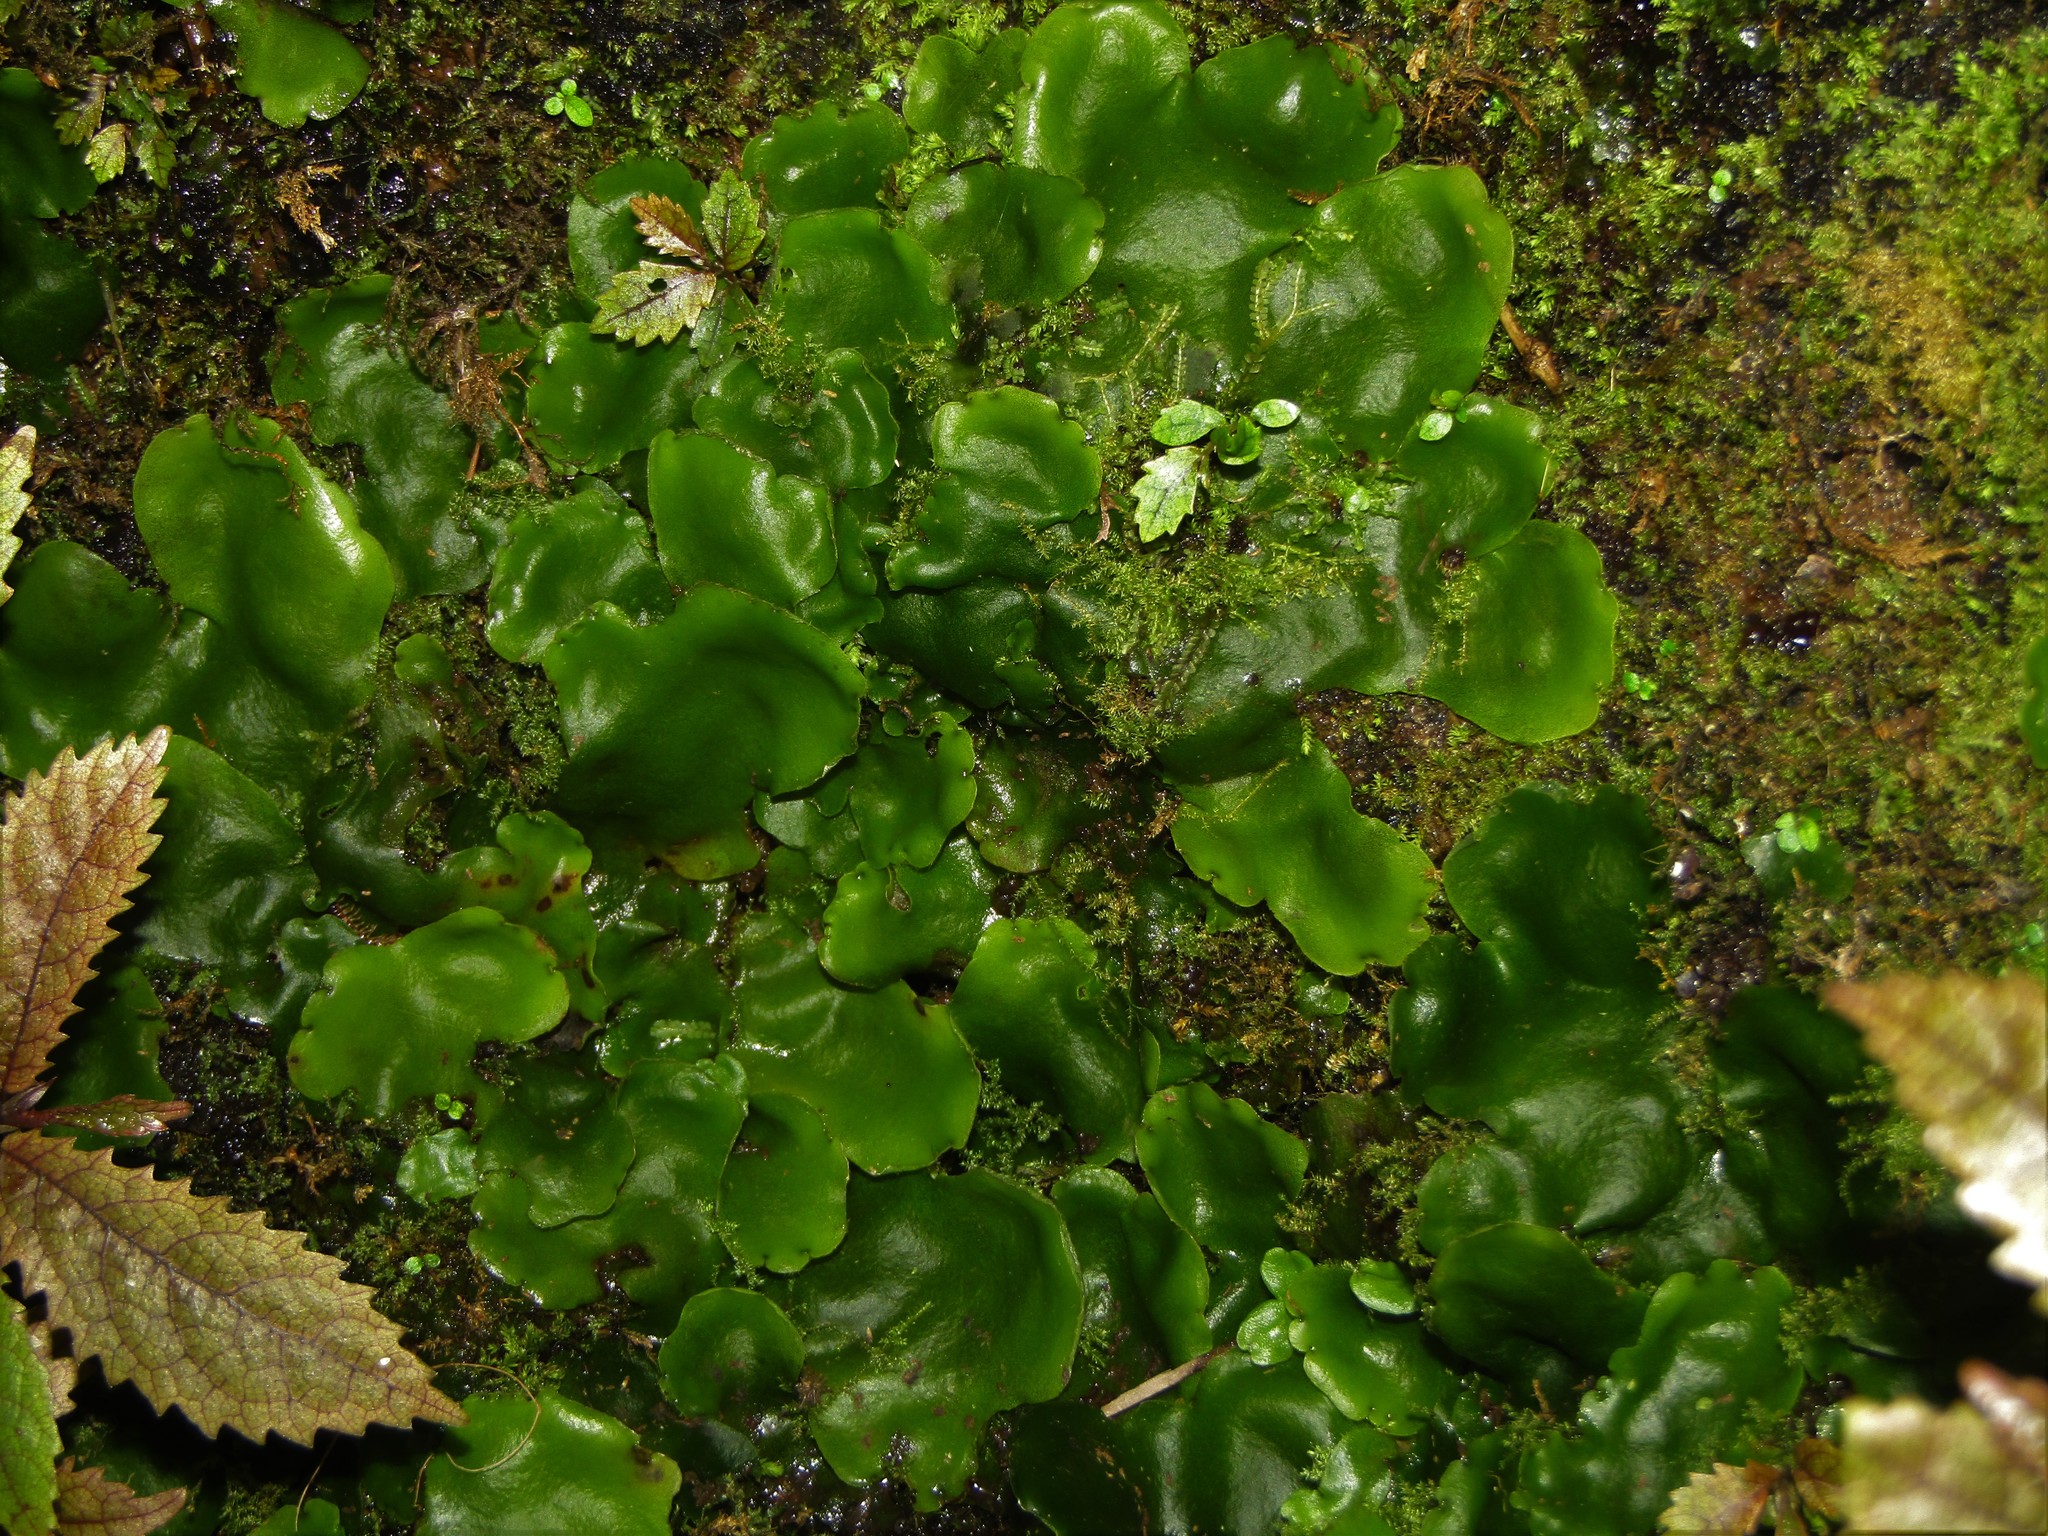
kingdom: Plantae
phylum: Marchantiophyta
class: Marchantiopsida
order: Marchantiales
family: Monocleaceae
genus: Monoclea
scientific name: Monoclea forsteri
